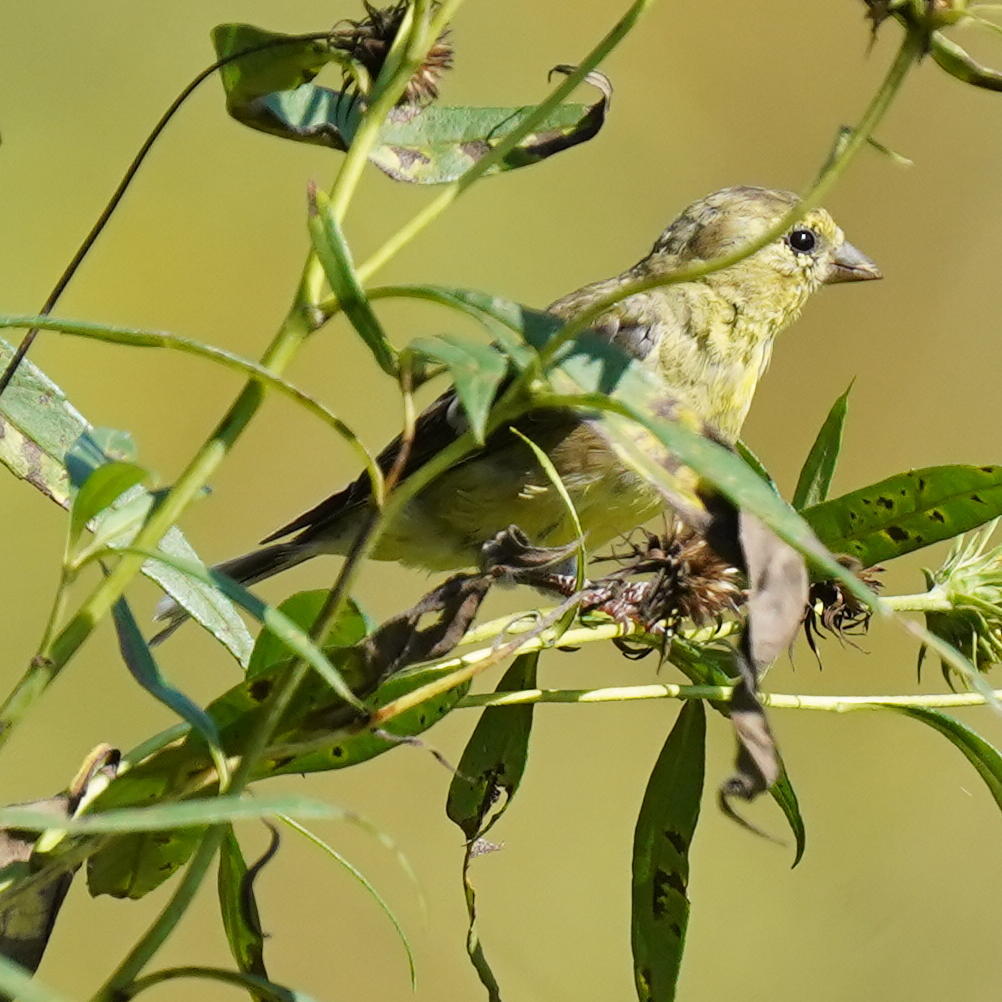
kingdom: Animalia
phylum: Chordata
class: Aves
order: Passeriformes
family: Fringillidae
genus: Spinus
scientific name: Spinus tristis
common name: American goldfinch
